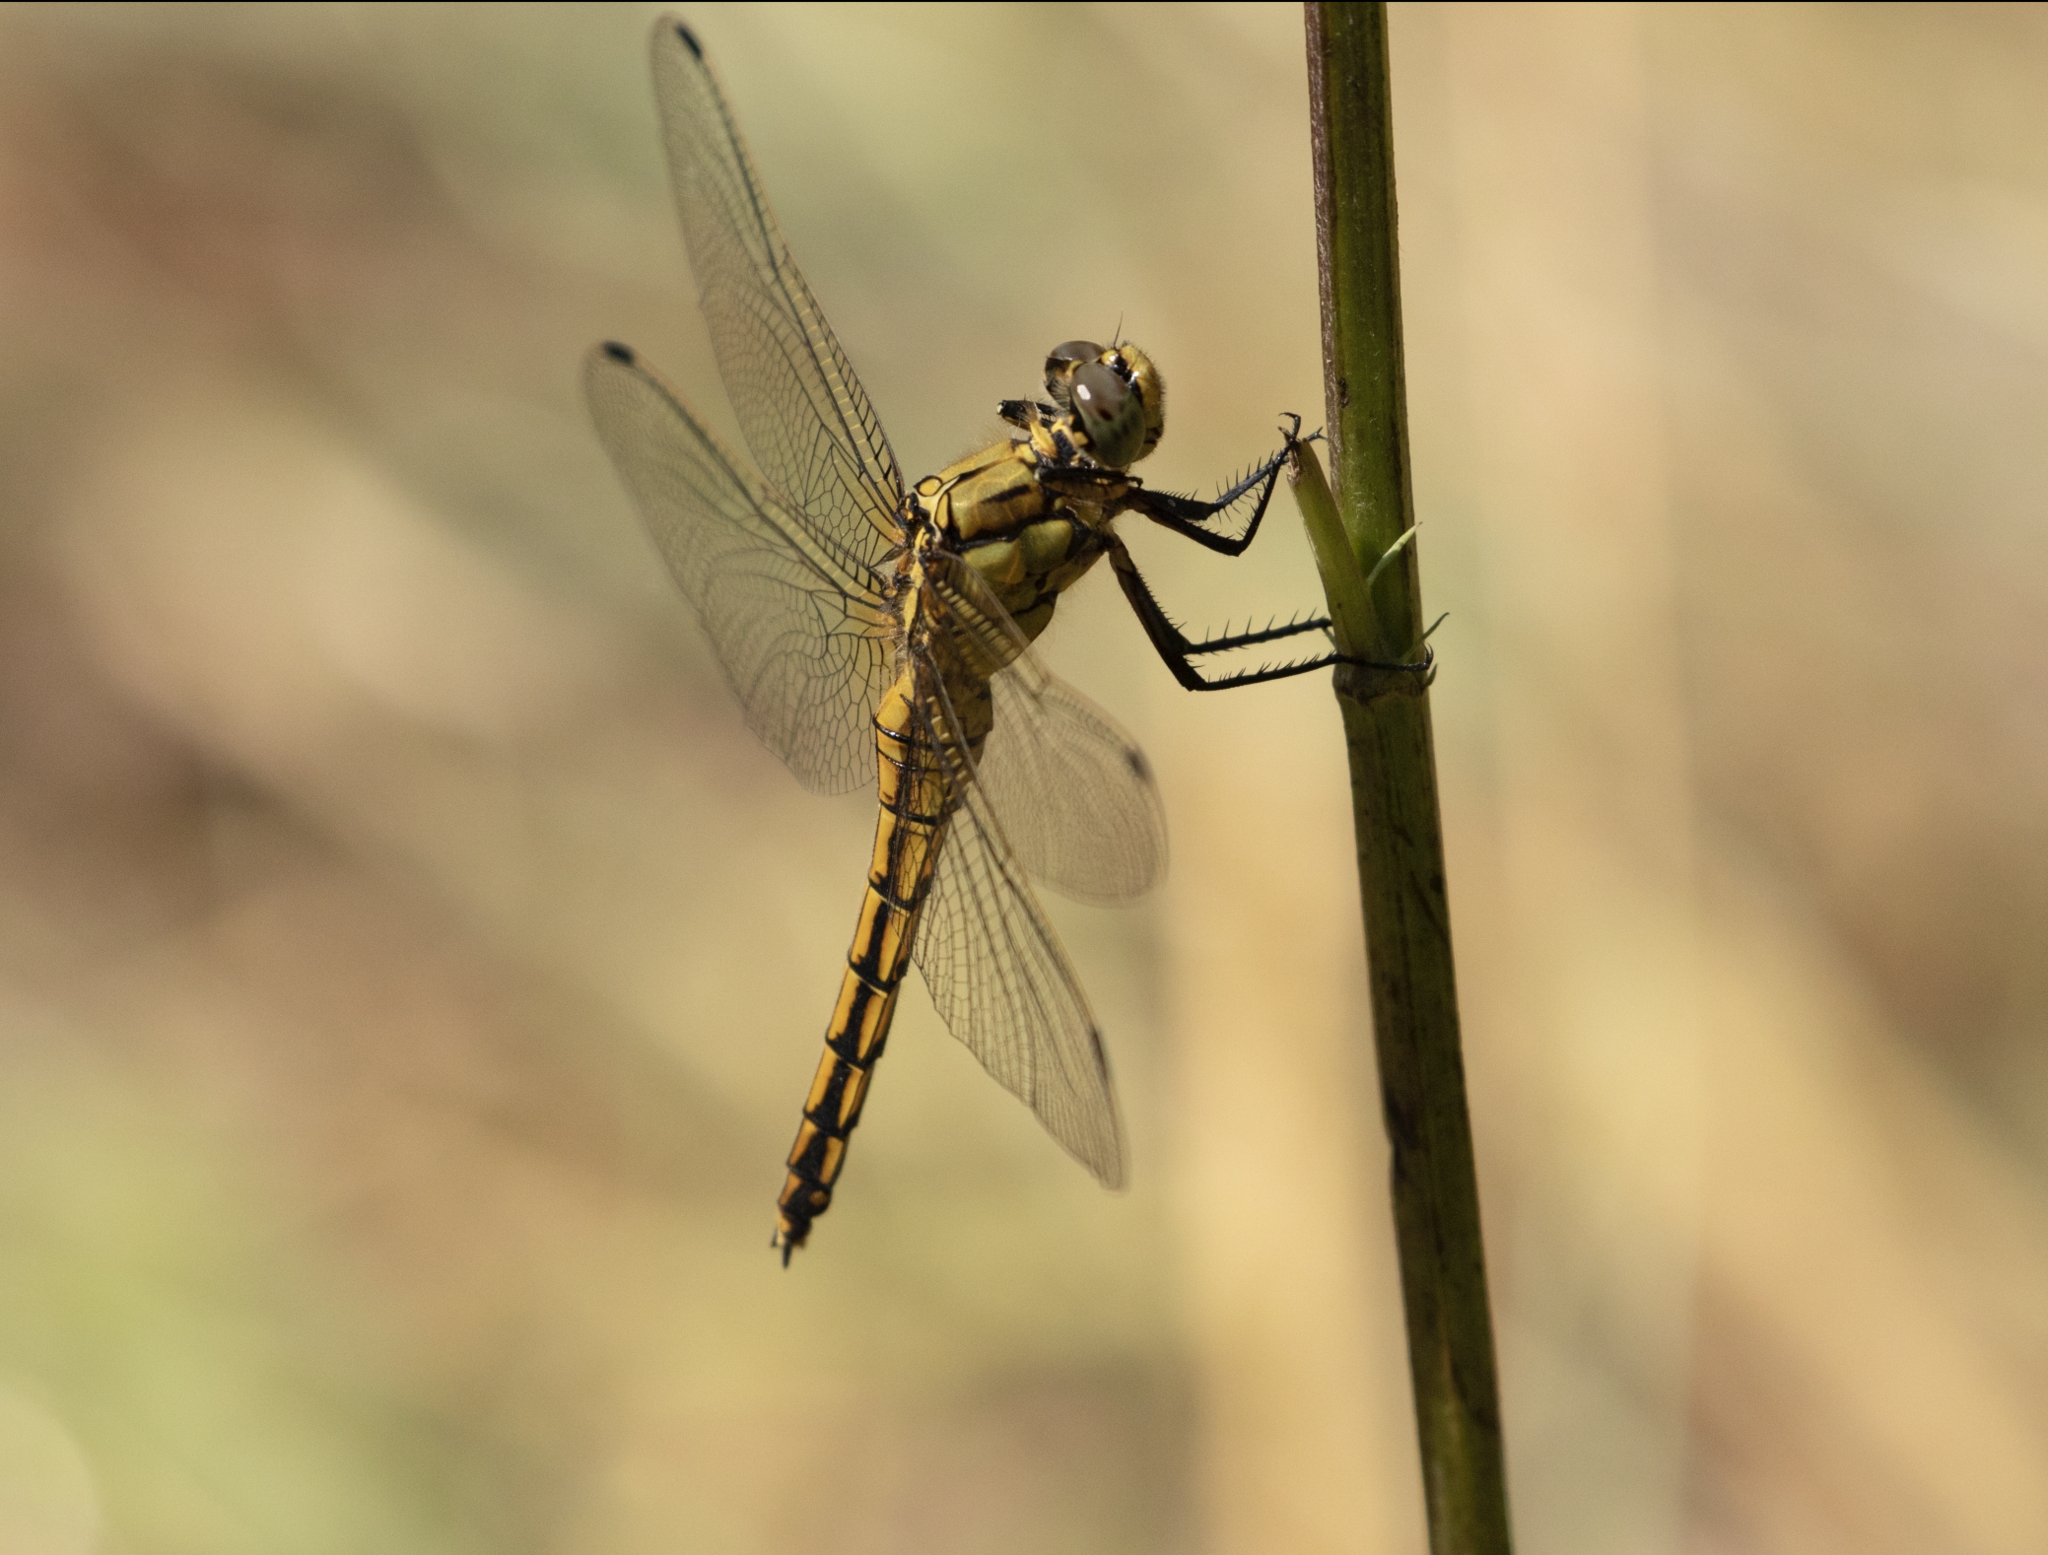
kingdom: Animalia
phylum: Arthropoda
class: Insecta
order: Odonata
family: Libellulidae
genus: Orthetrum
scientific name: Orthetrum cancellatum
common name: Black-tailed skimmer
